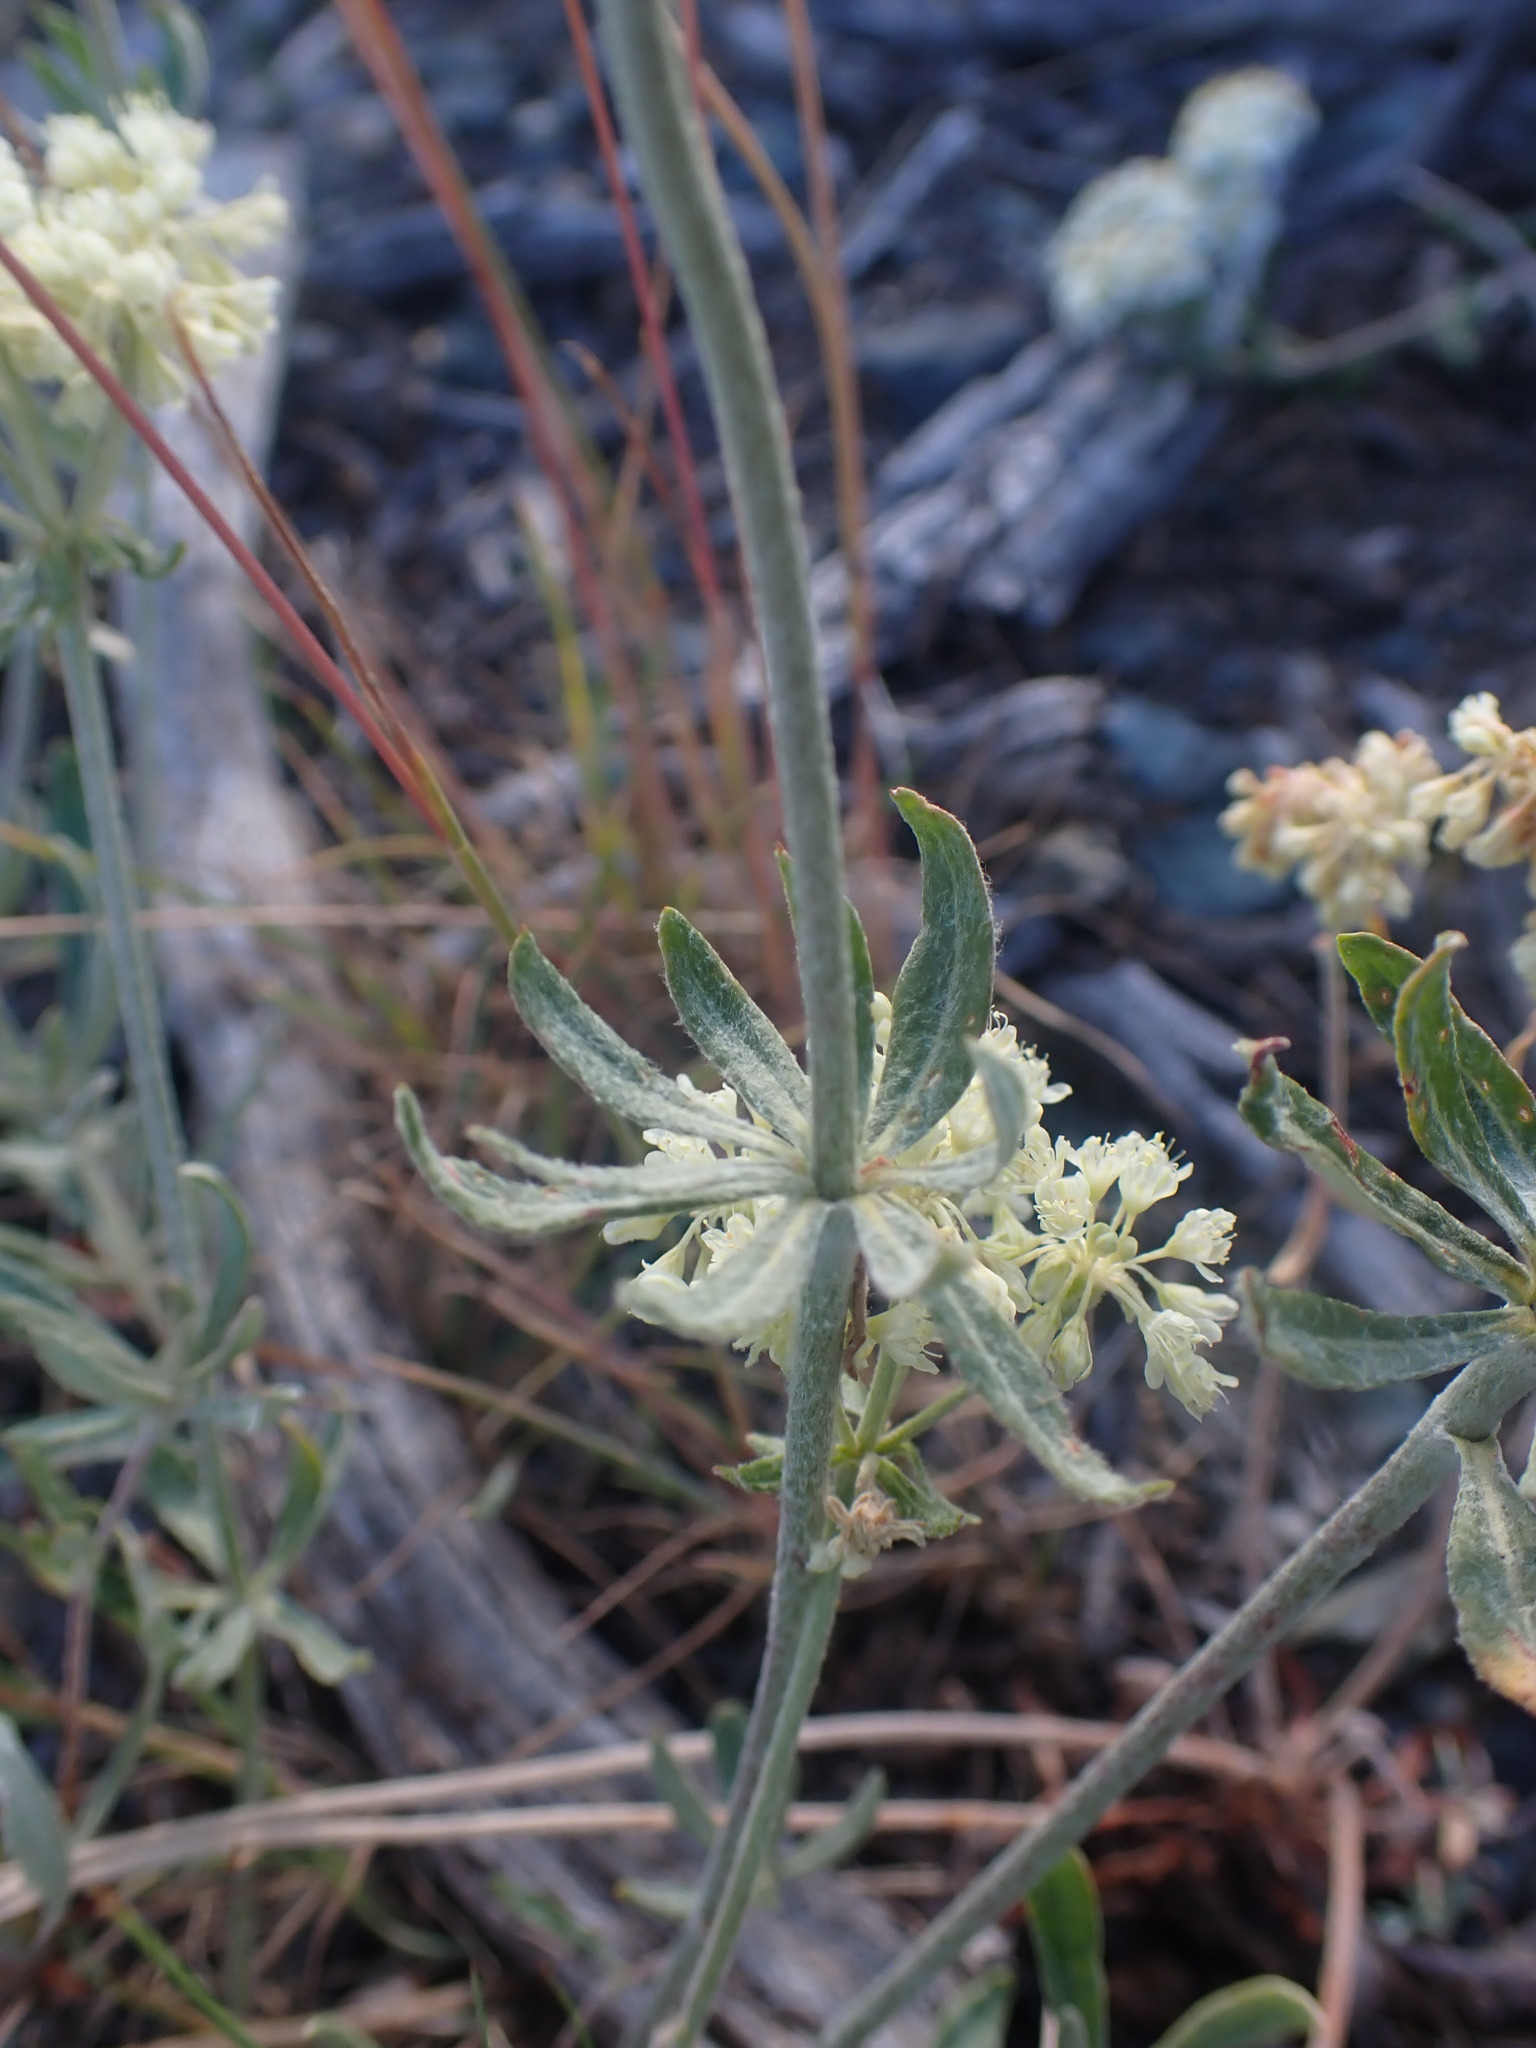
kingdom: Plantae
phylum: Tracheophyta
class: Magnoliopsida
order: Caryophyllales
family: Polygonaceae
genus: Eriogonum
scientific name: Eriogonum heracleoides
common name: Wyeth's buckwheat
